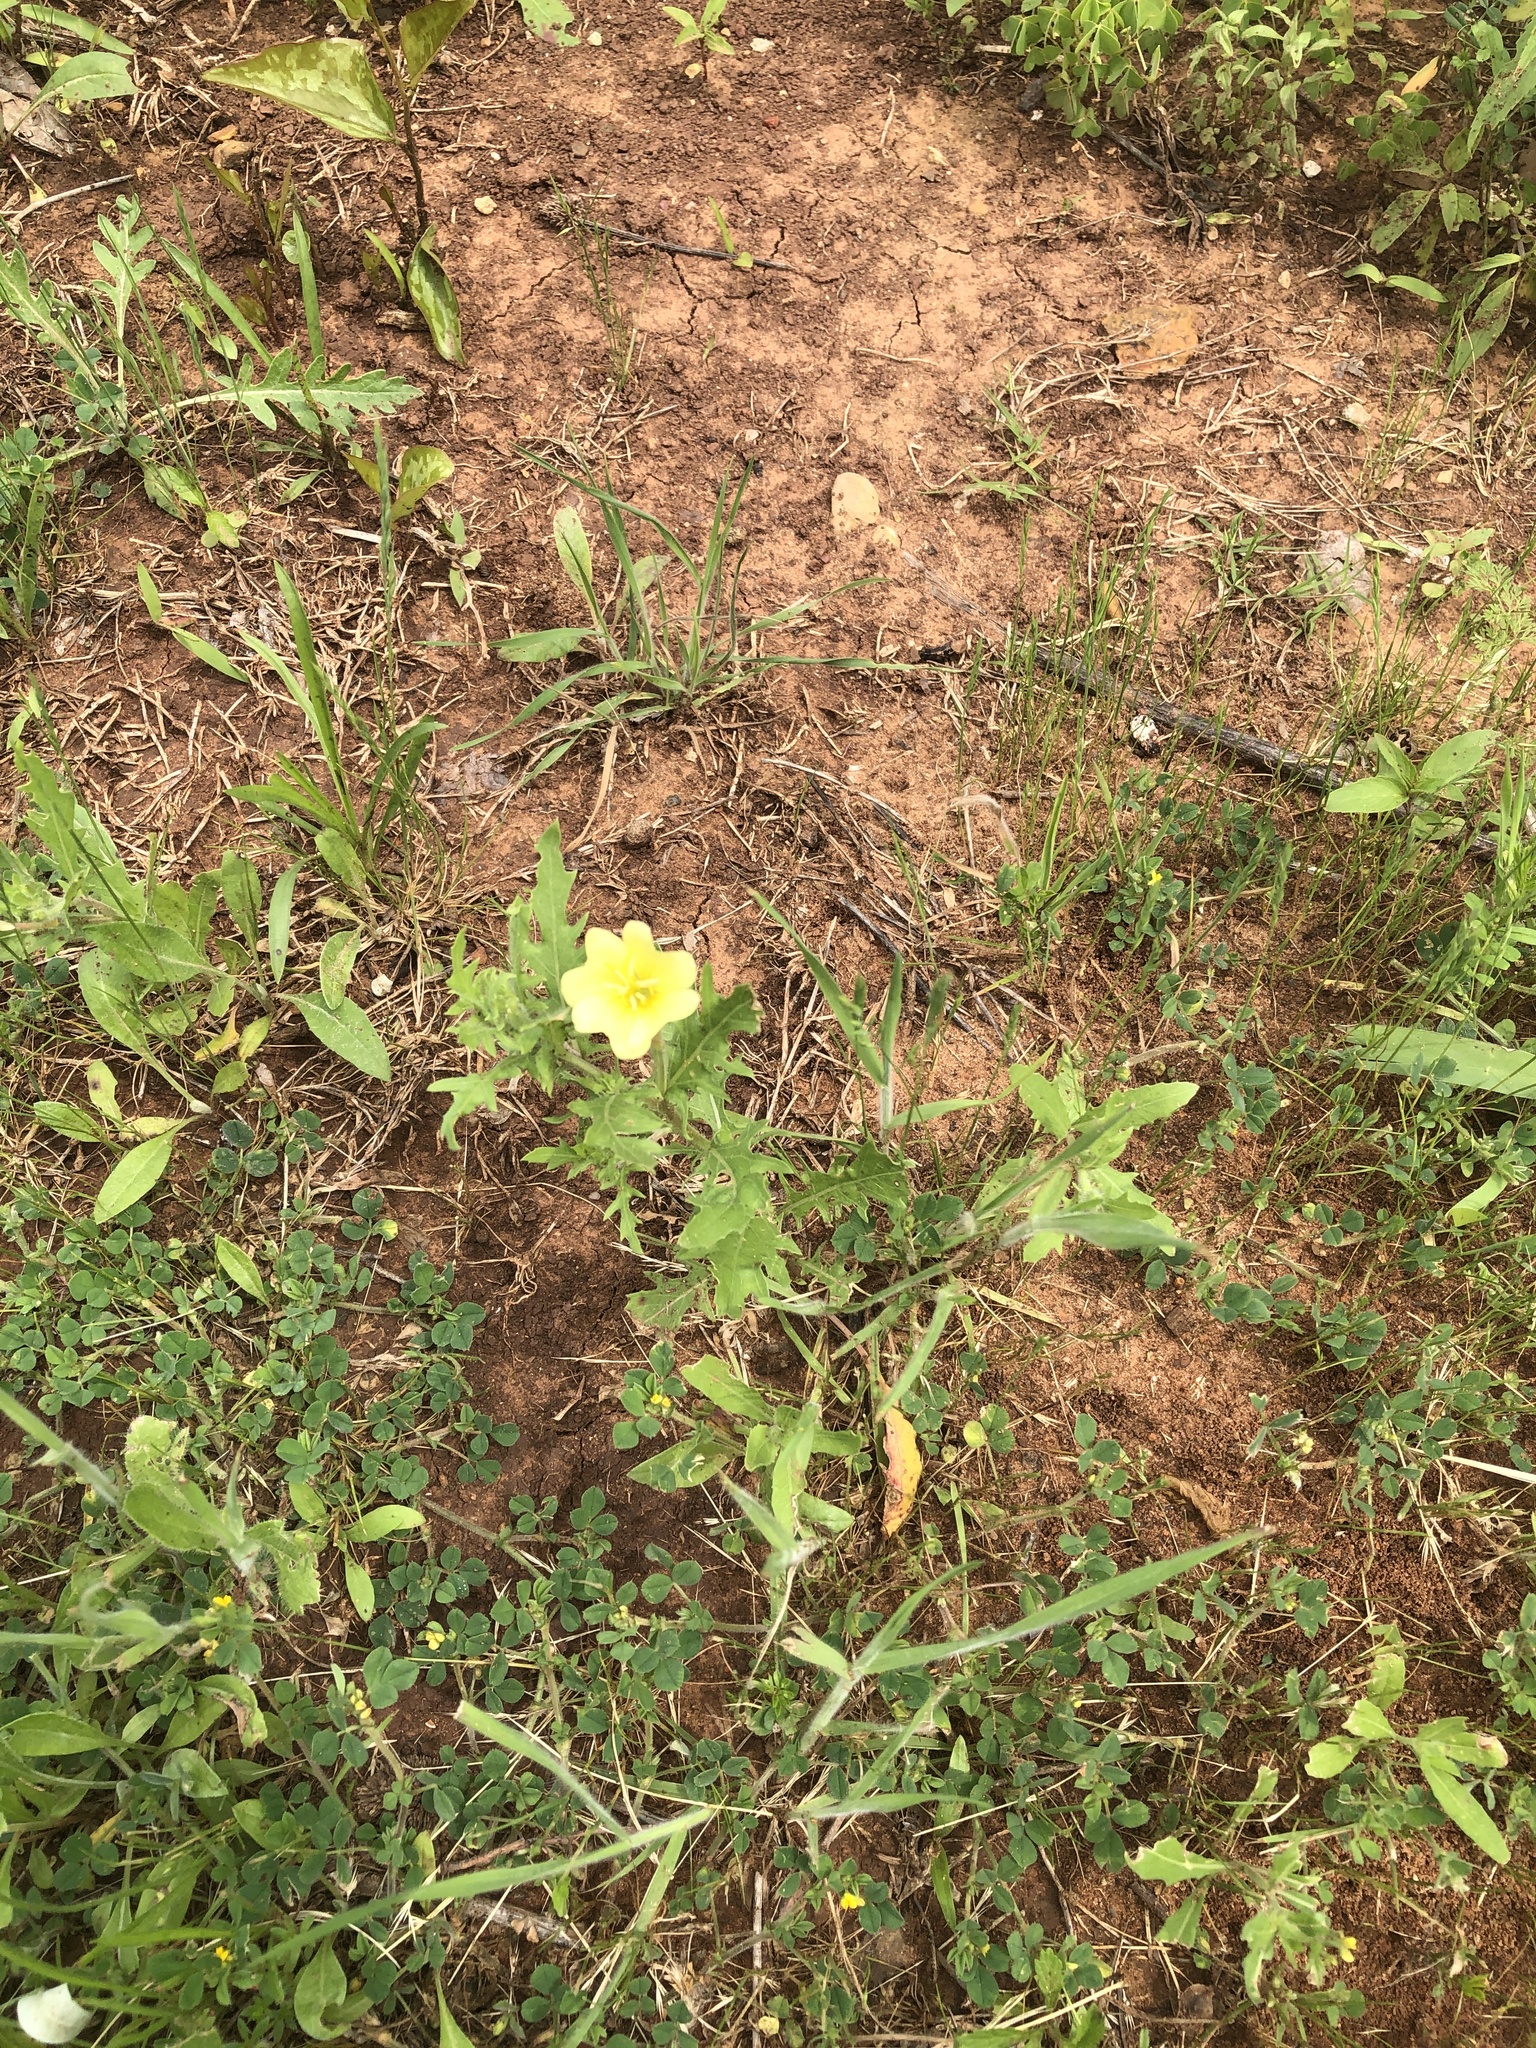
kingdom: Plantae
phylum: Tracheophyta
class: Magnoliopsida
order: Myrtales
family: Onagraceae
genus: Oenothera
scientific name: Oenothera laciniata
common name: Cut-leaved evening-primrose
